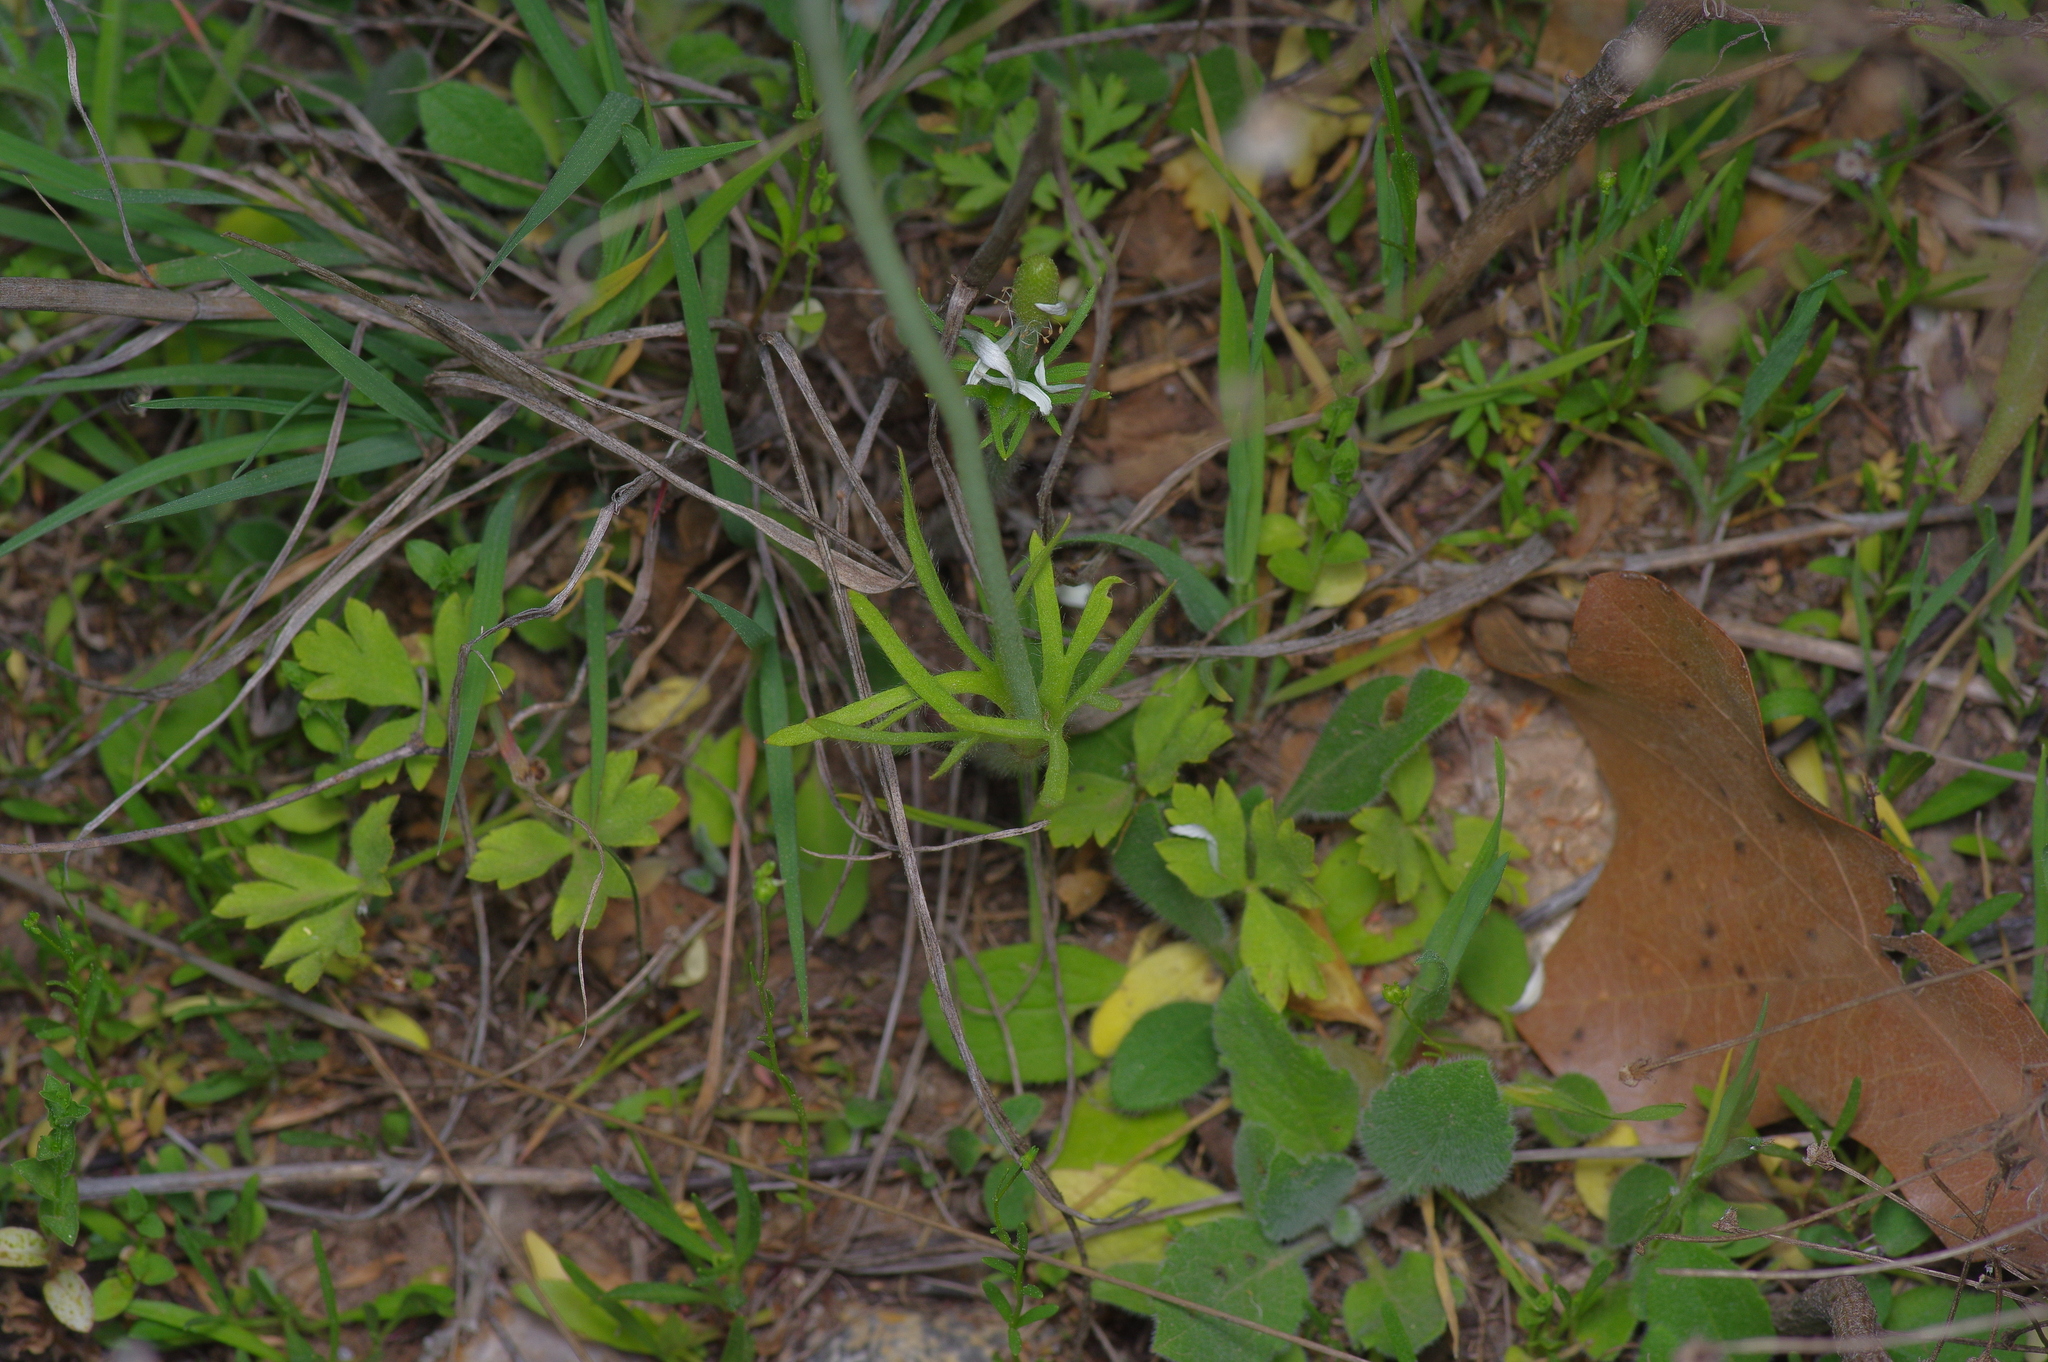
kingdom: Plantae
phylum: Tracheophyta
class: Magnoliopsida
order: Ranunculales
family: Ranunculaceae
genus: Anemone
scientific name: Anemone berlandieri
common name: Ten-petal anemone
